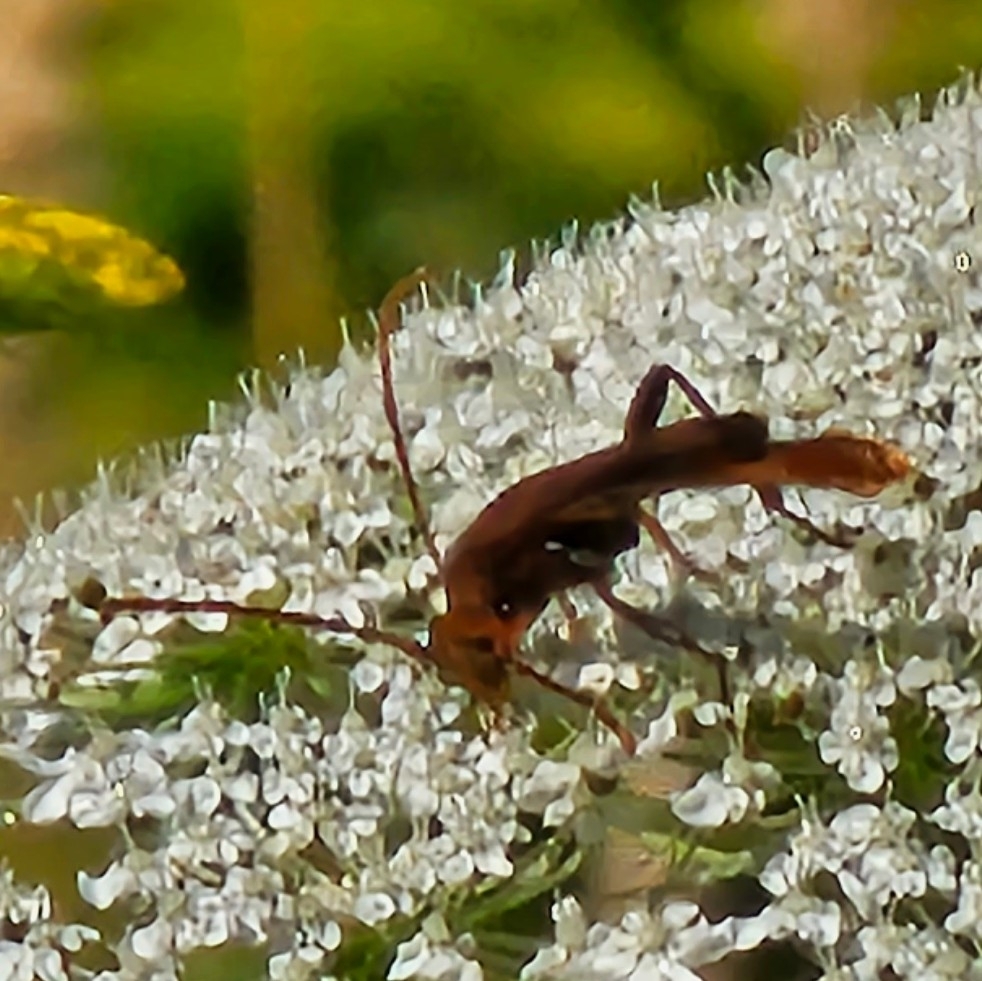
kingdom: Animalia
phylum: Arthropoda
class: Insecta
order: Coleoptera
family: Cerambycidae
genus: Bellamira
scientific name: Bellamira scalaris
